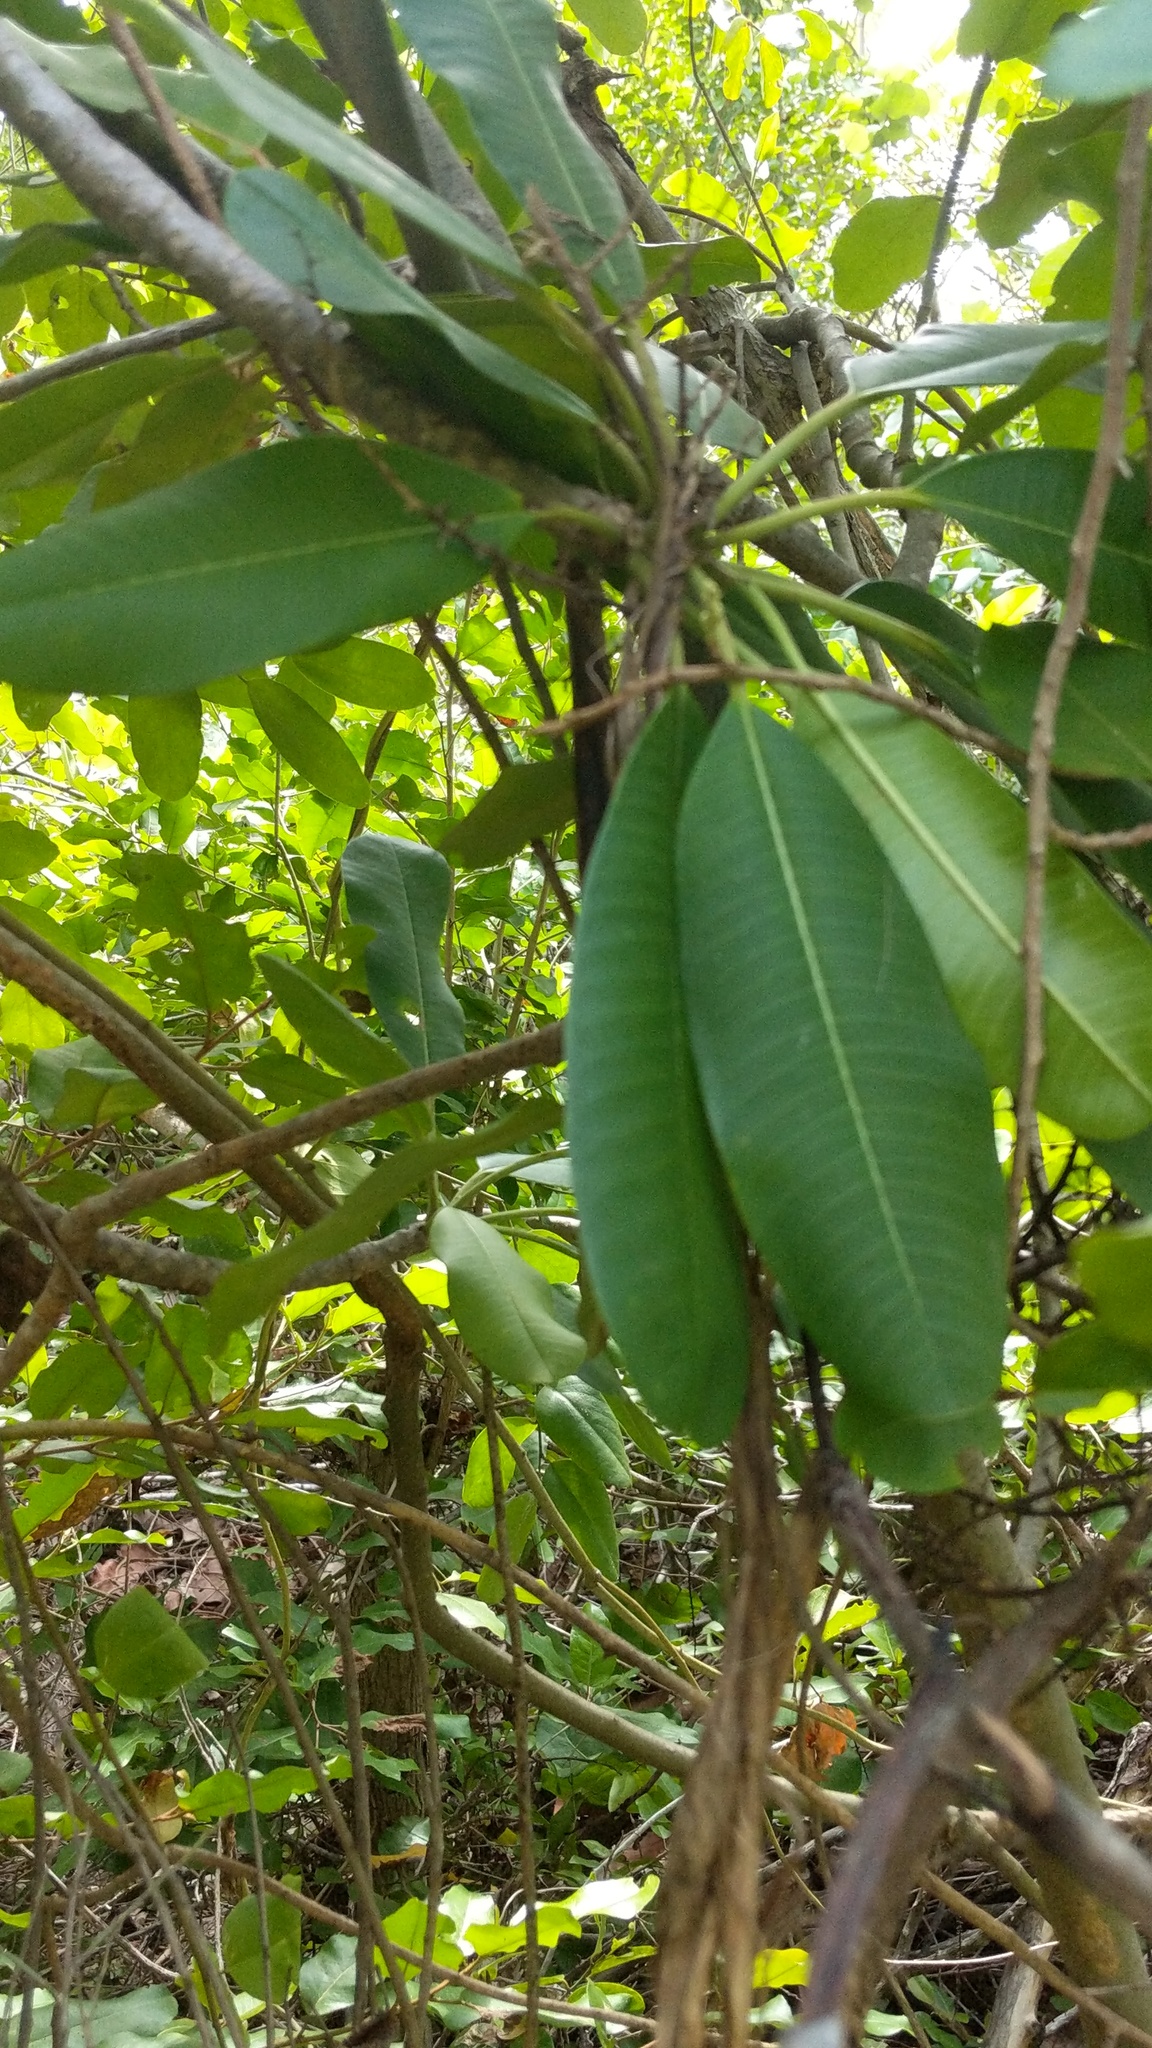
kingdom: Plantae
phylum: Tracheophyta
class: Magnoliopsida
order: Gentianales
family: Apocynaceae
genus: Plumeria
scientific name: Plumeria obtusa
